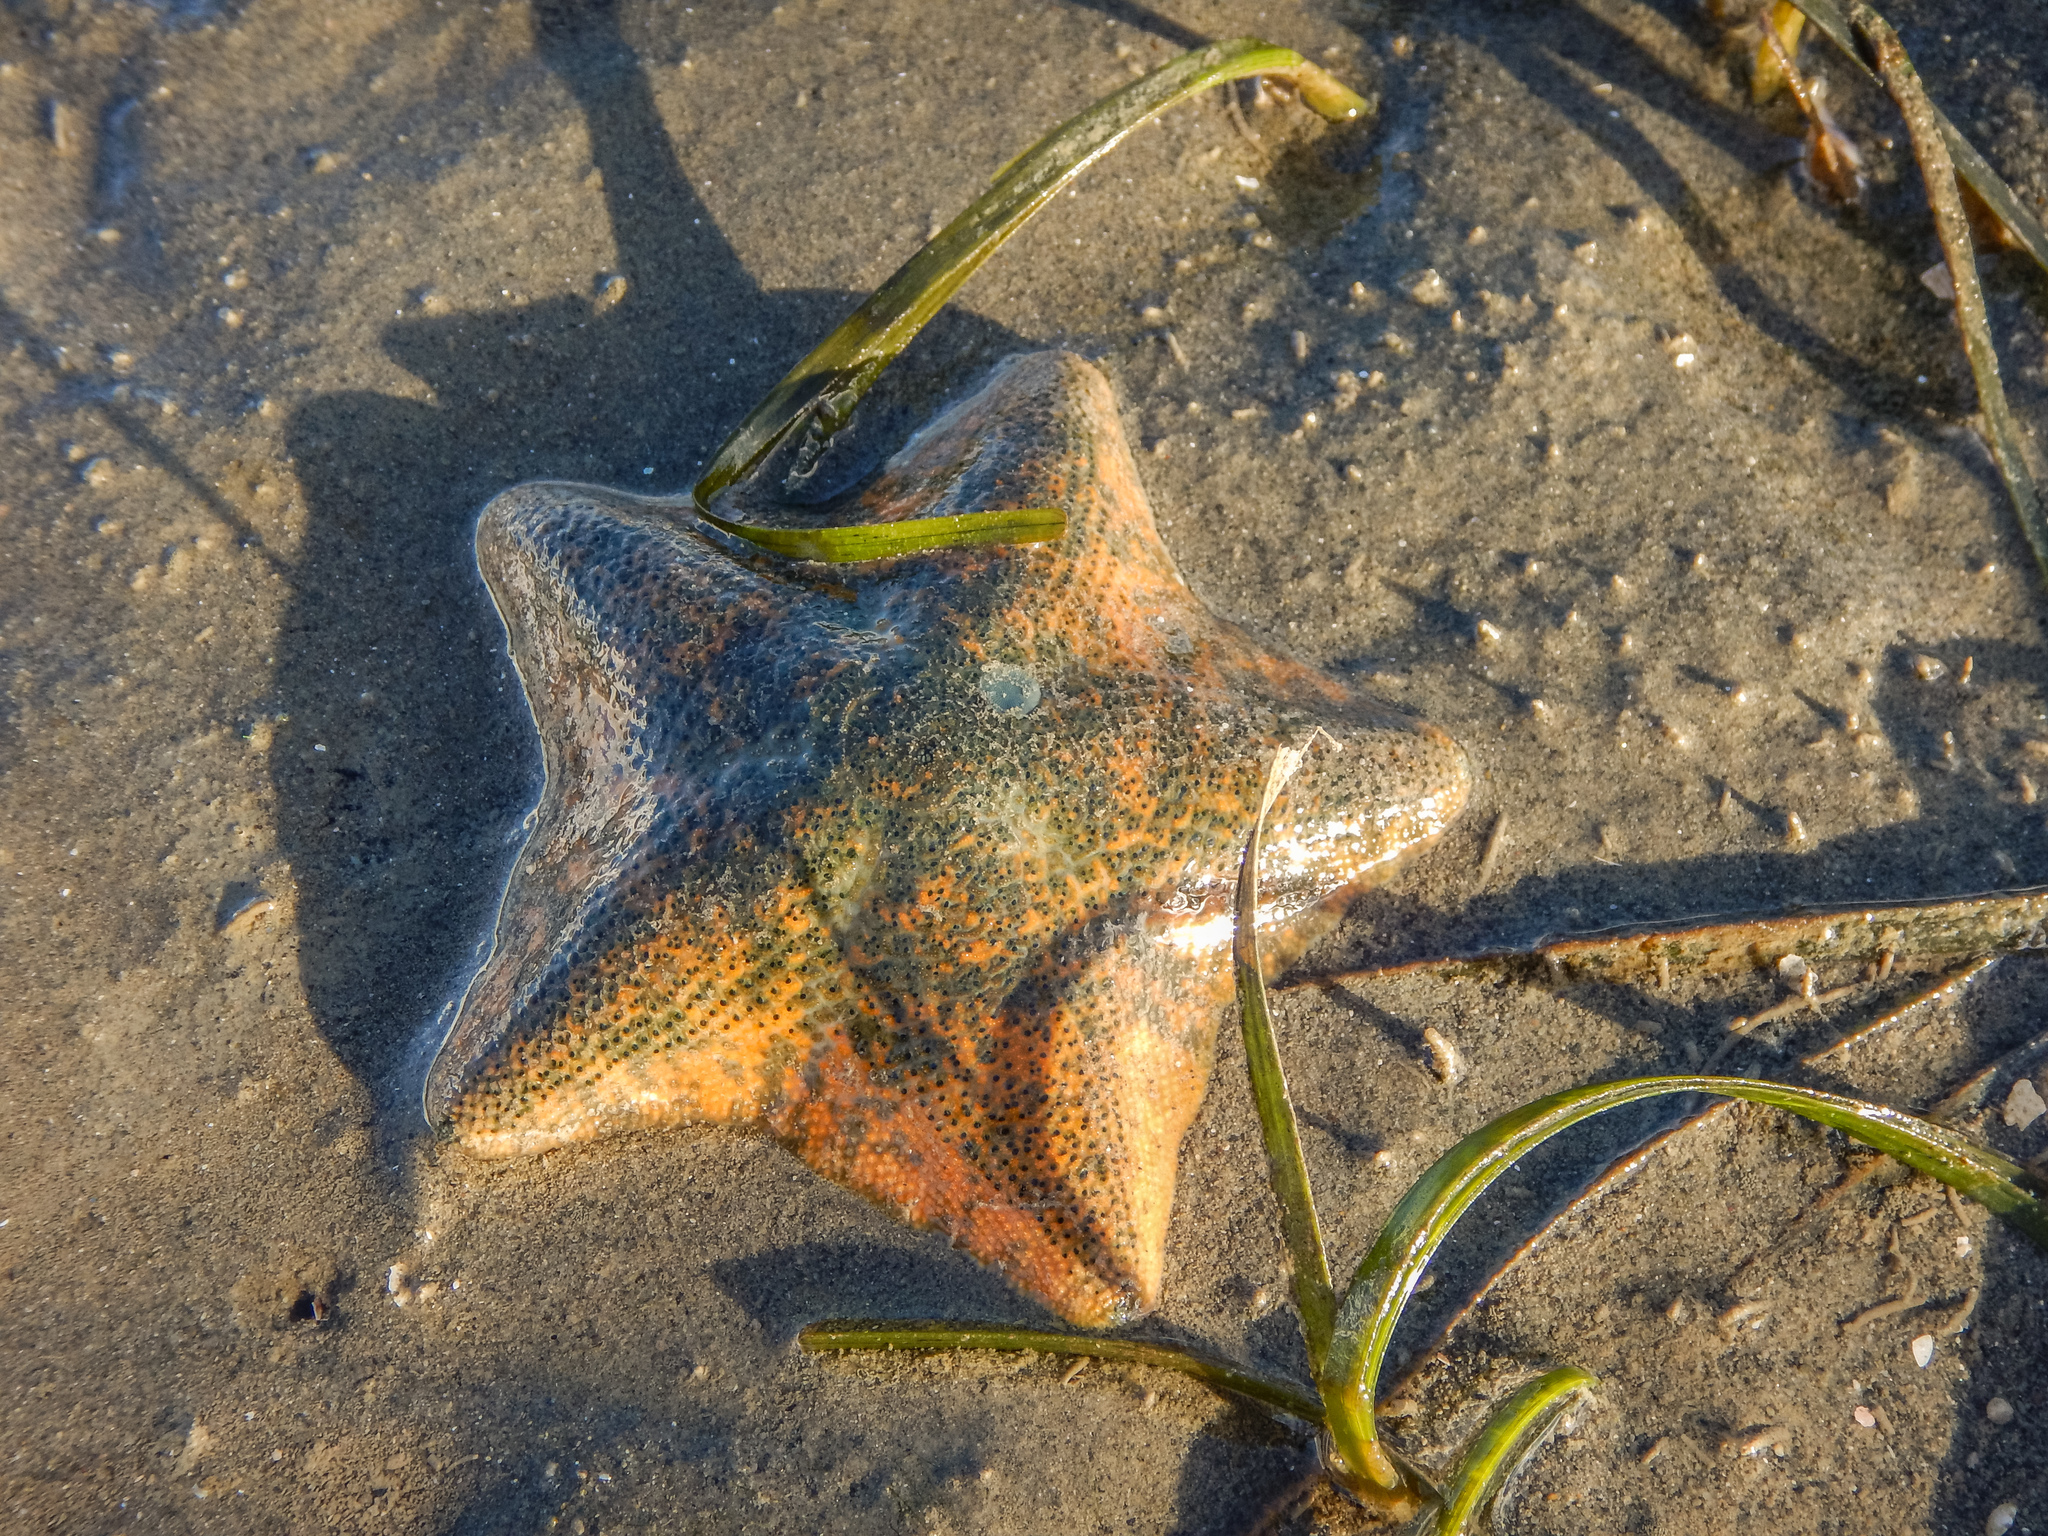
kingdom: Animalia
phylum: Echinodermata
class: Asteroidea
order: Valvatida
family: Asterinidae
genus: Patiriella
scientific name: Patiriella regularis
